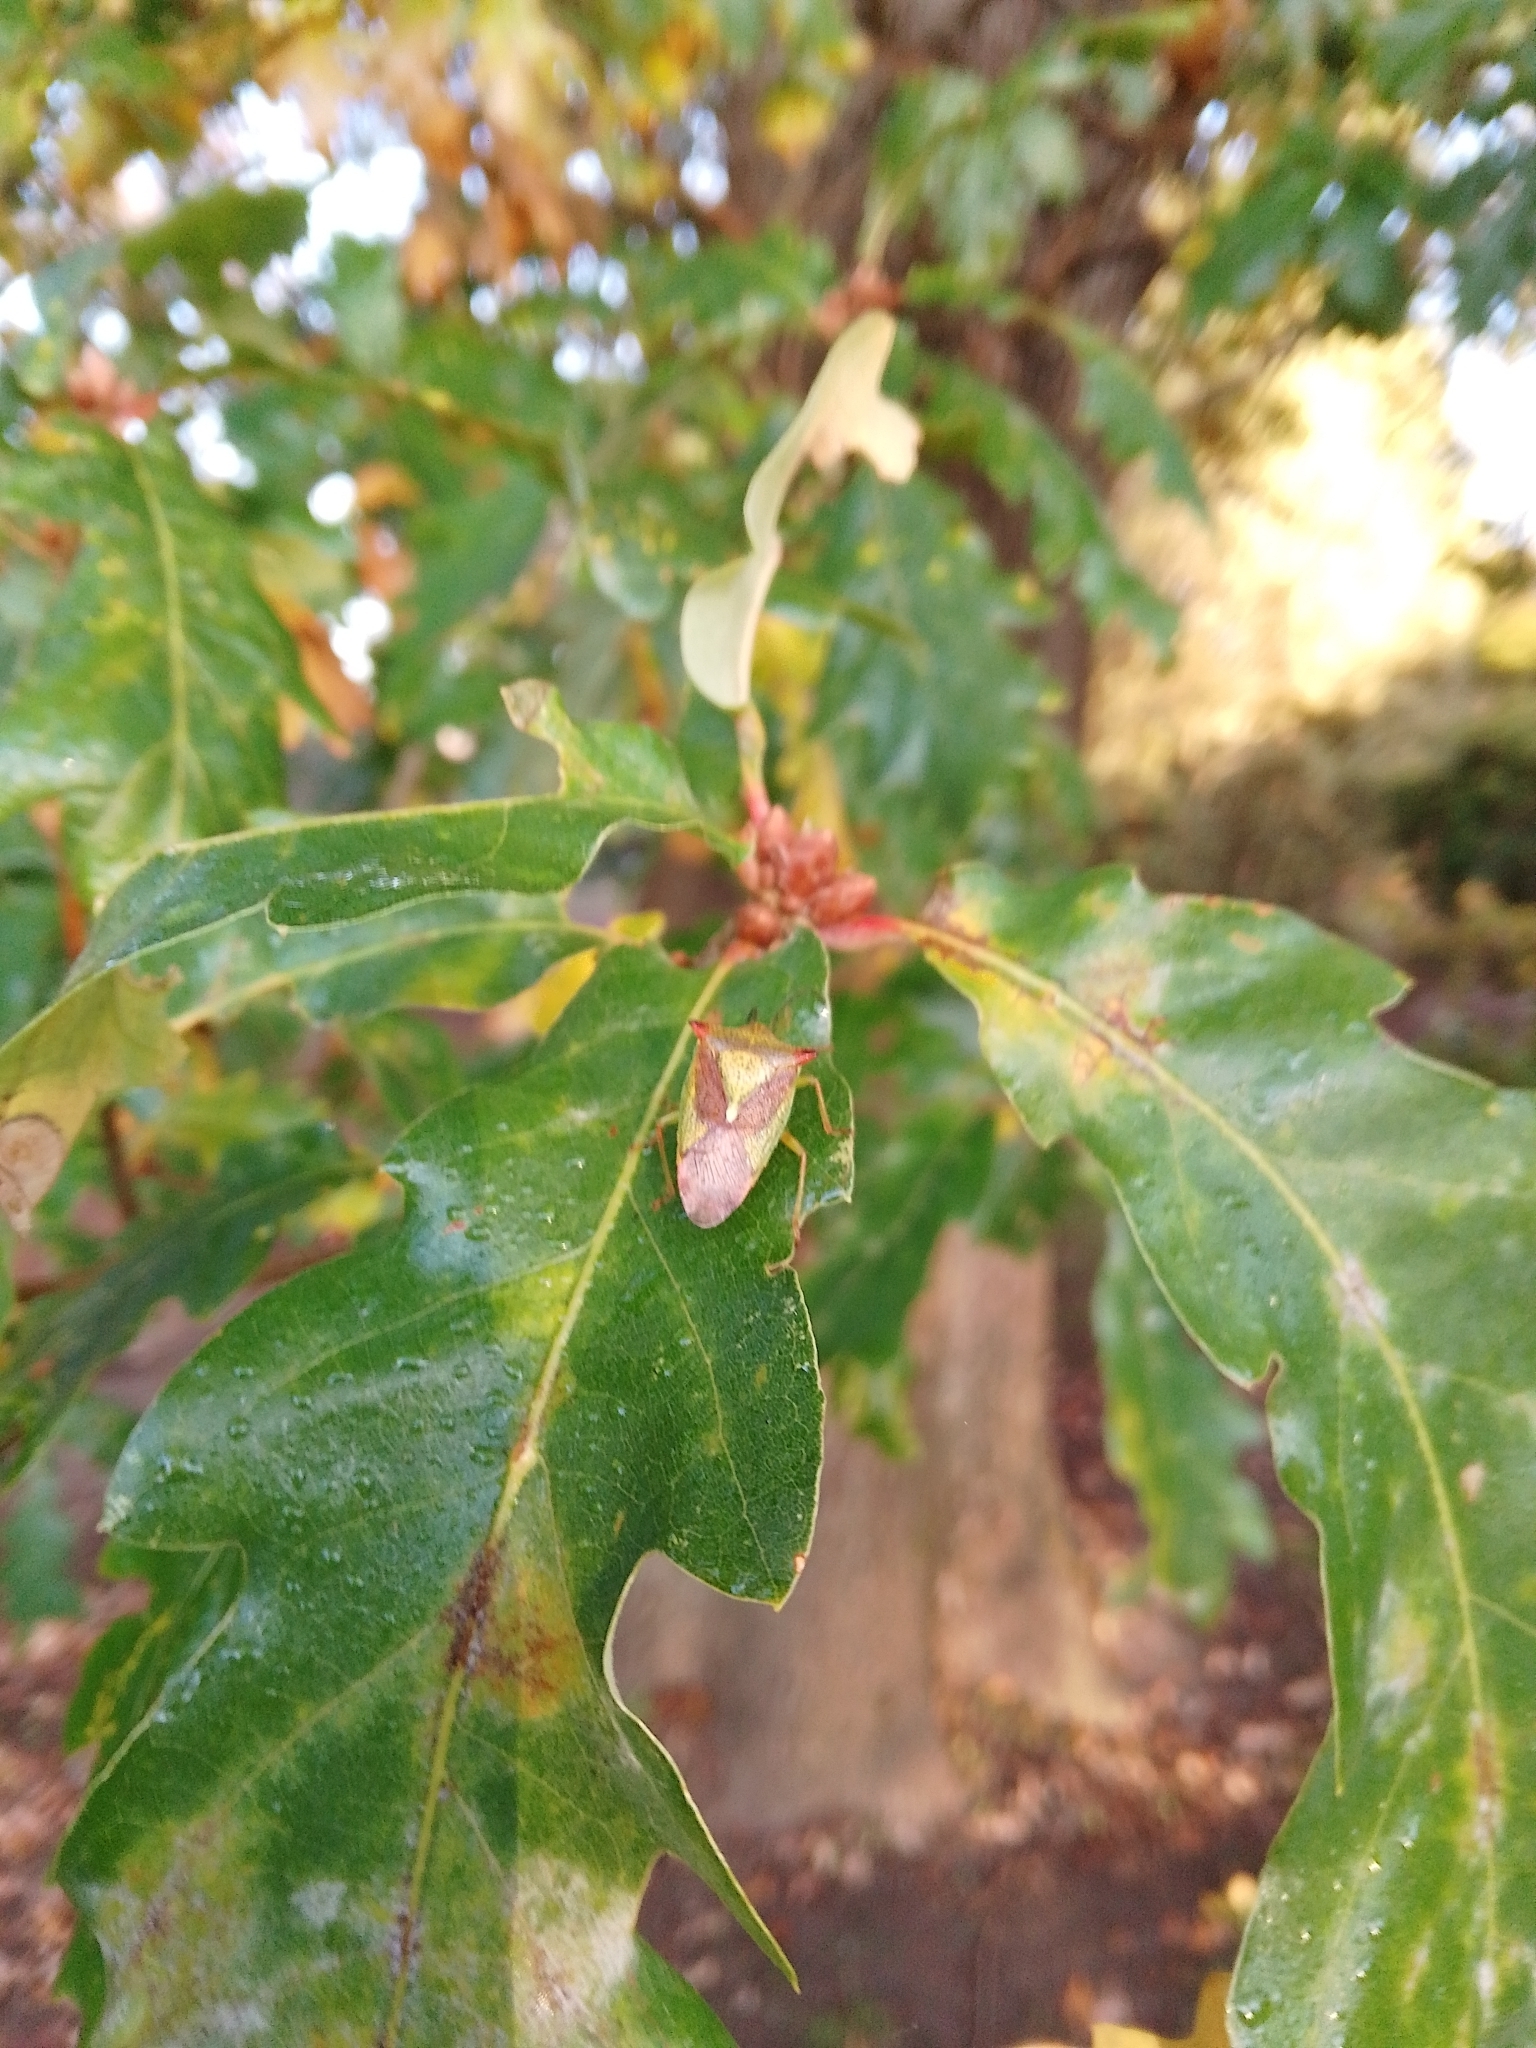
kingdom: Animalia
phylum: Arthropoda
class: Insecta
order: Hemiptera
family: Acanthosomatidae
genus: Acanthosoma
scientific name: Acanthosoma haemorrhoidale
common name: Hawthorn shieldbug
